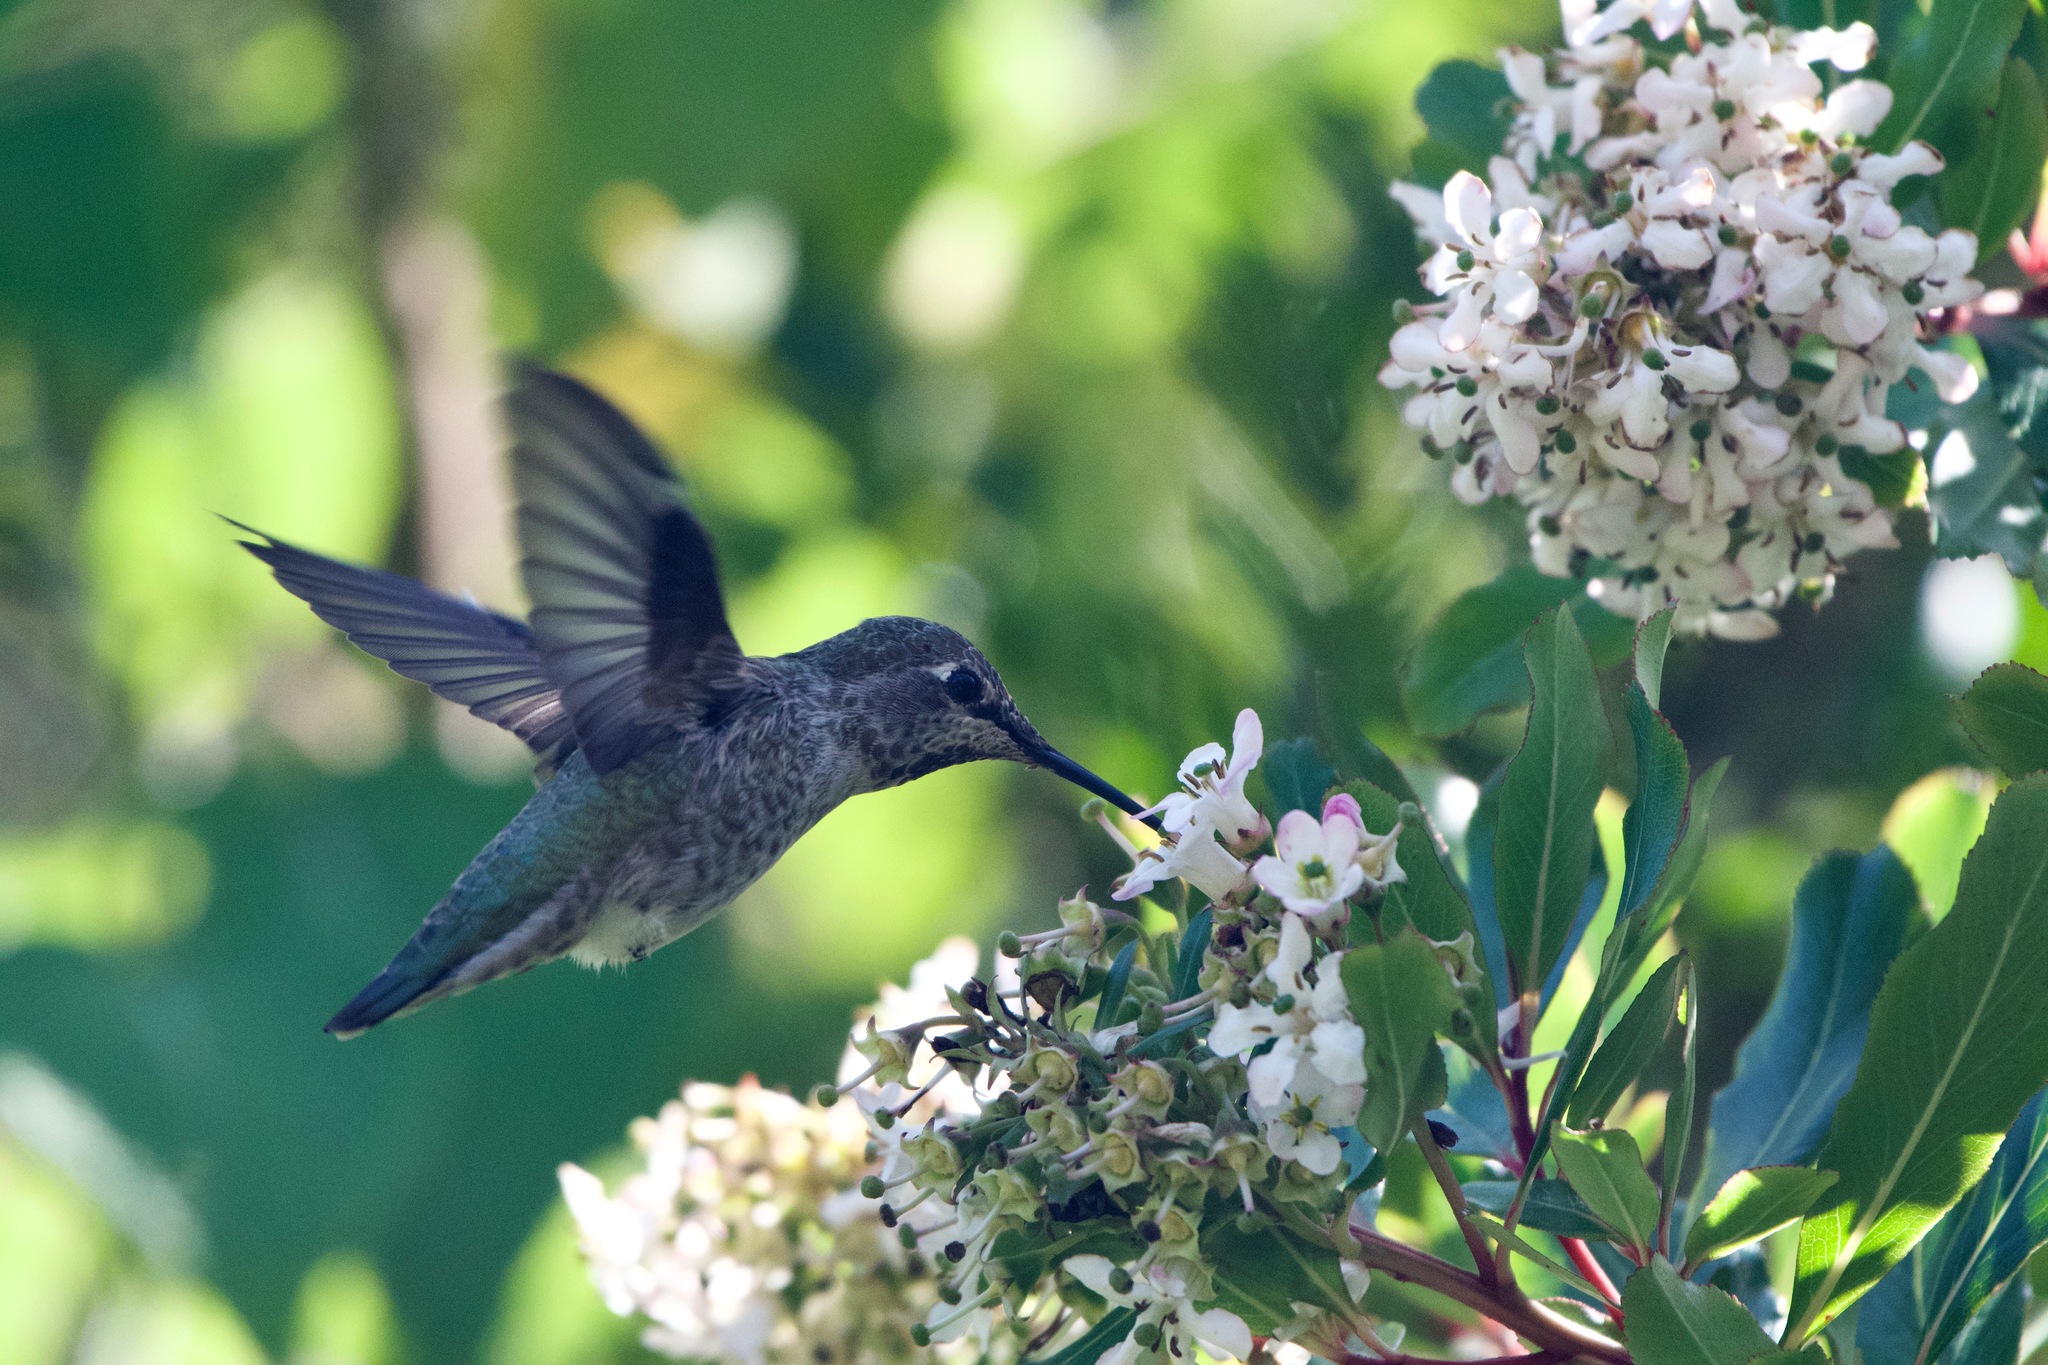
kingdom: Animalia
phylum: Chordata
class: Aves
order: Apodiformes
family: Trochilidae
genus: Calypte
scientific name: Calypte anna
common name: Anna's hummingbird
